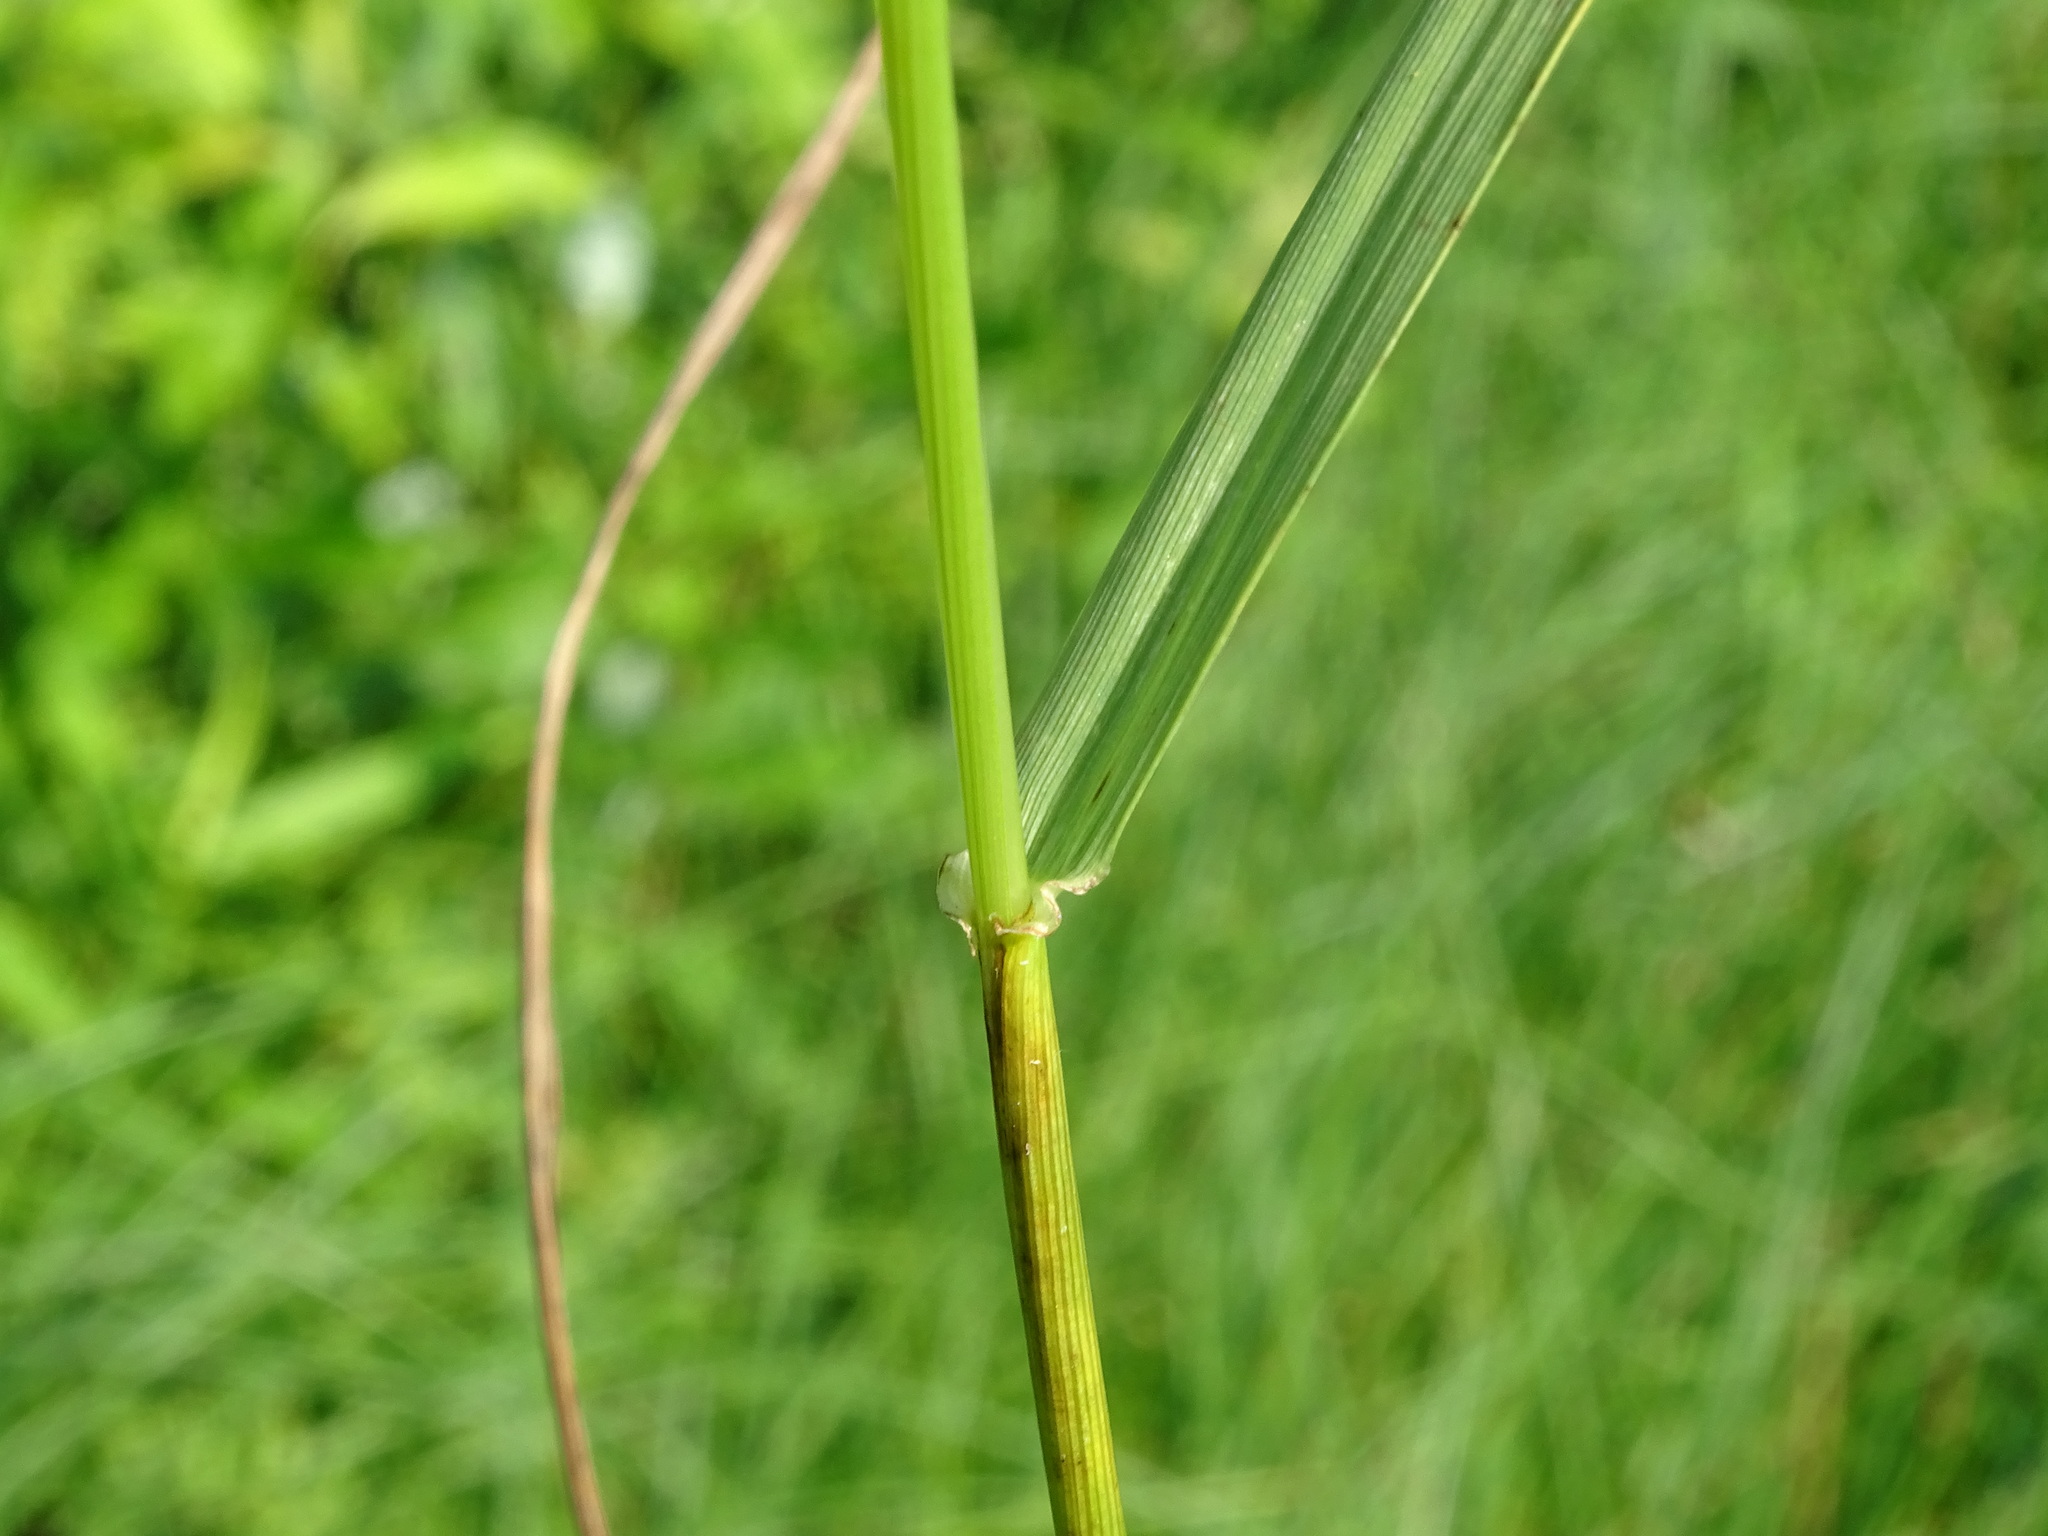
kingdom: Plantae
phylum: Tracheophyta
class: Liliopsida
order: Poales
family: Poaceae
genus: Lolium
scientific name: Lolium pratense
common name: Dover grass
